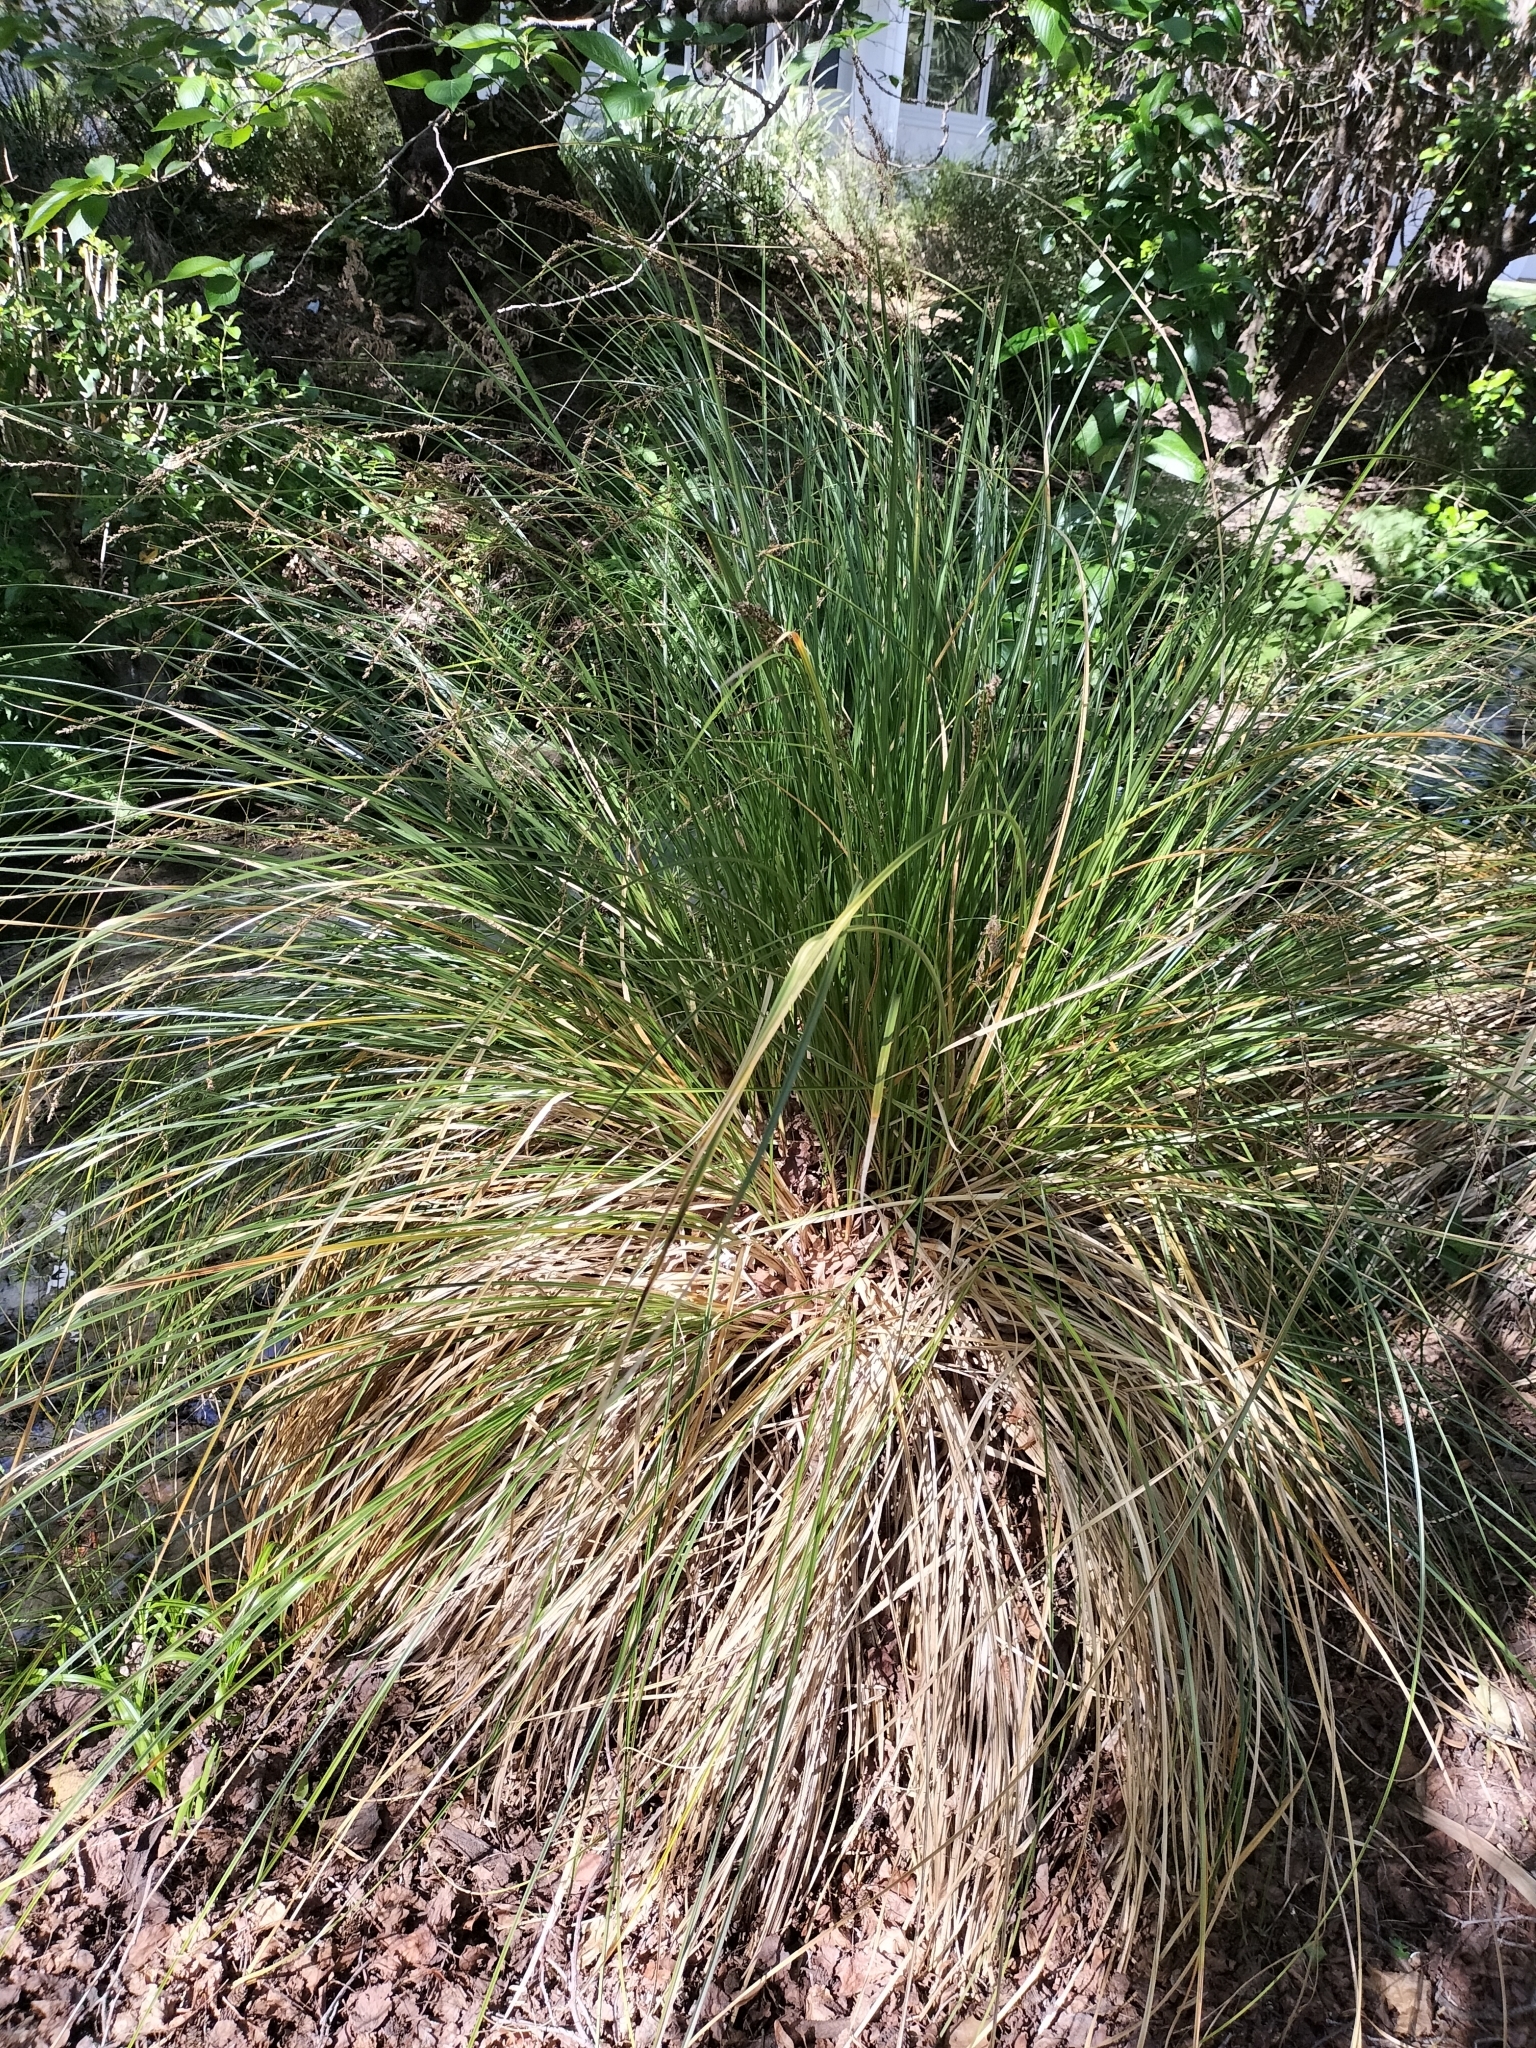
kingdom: Plantae
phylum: Tracheophyta
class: Liliopsida
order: Poales
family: Cyperaceae
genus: Carex
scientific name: Carex secta
